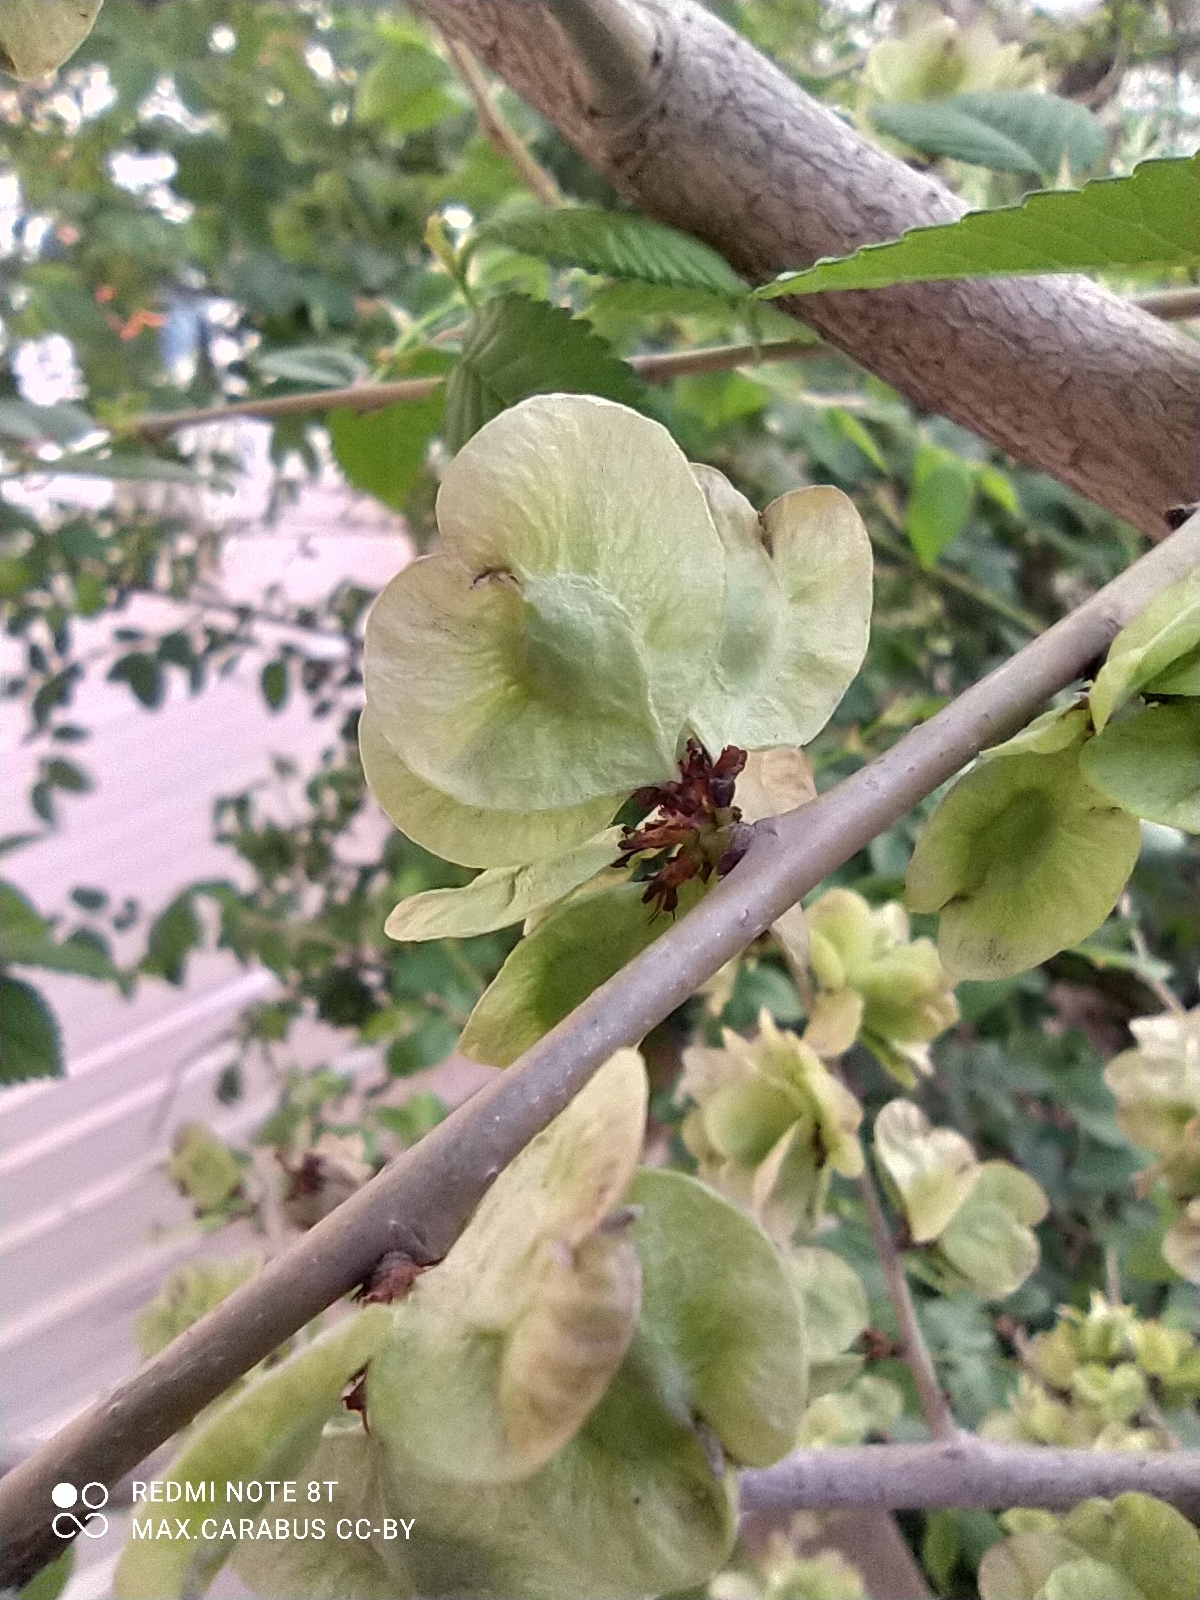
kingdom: Plantae
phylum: Tracheophyta
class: Magnoliopsida
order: Rosales
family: Ulmaceae
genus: Ulmus
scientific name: Ulmus pumila
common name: Siberian elm
